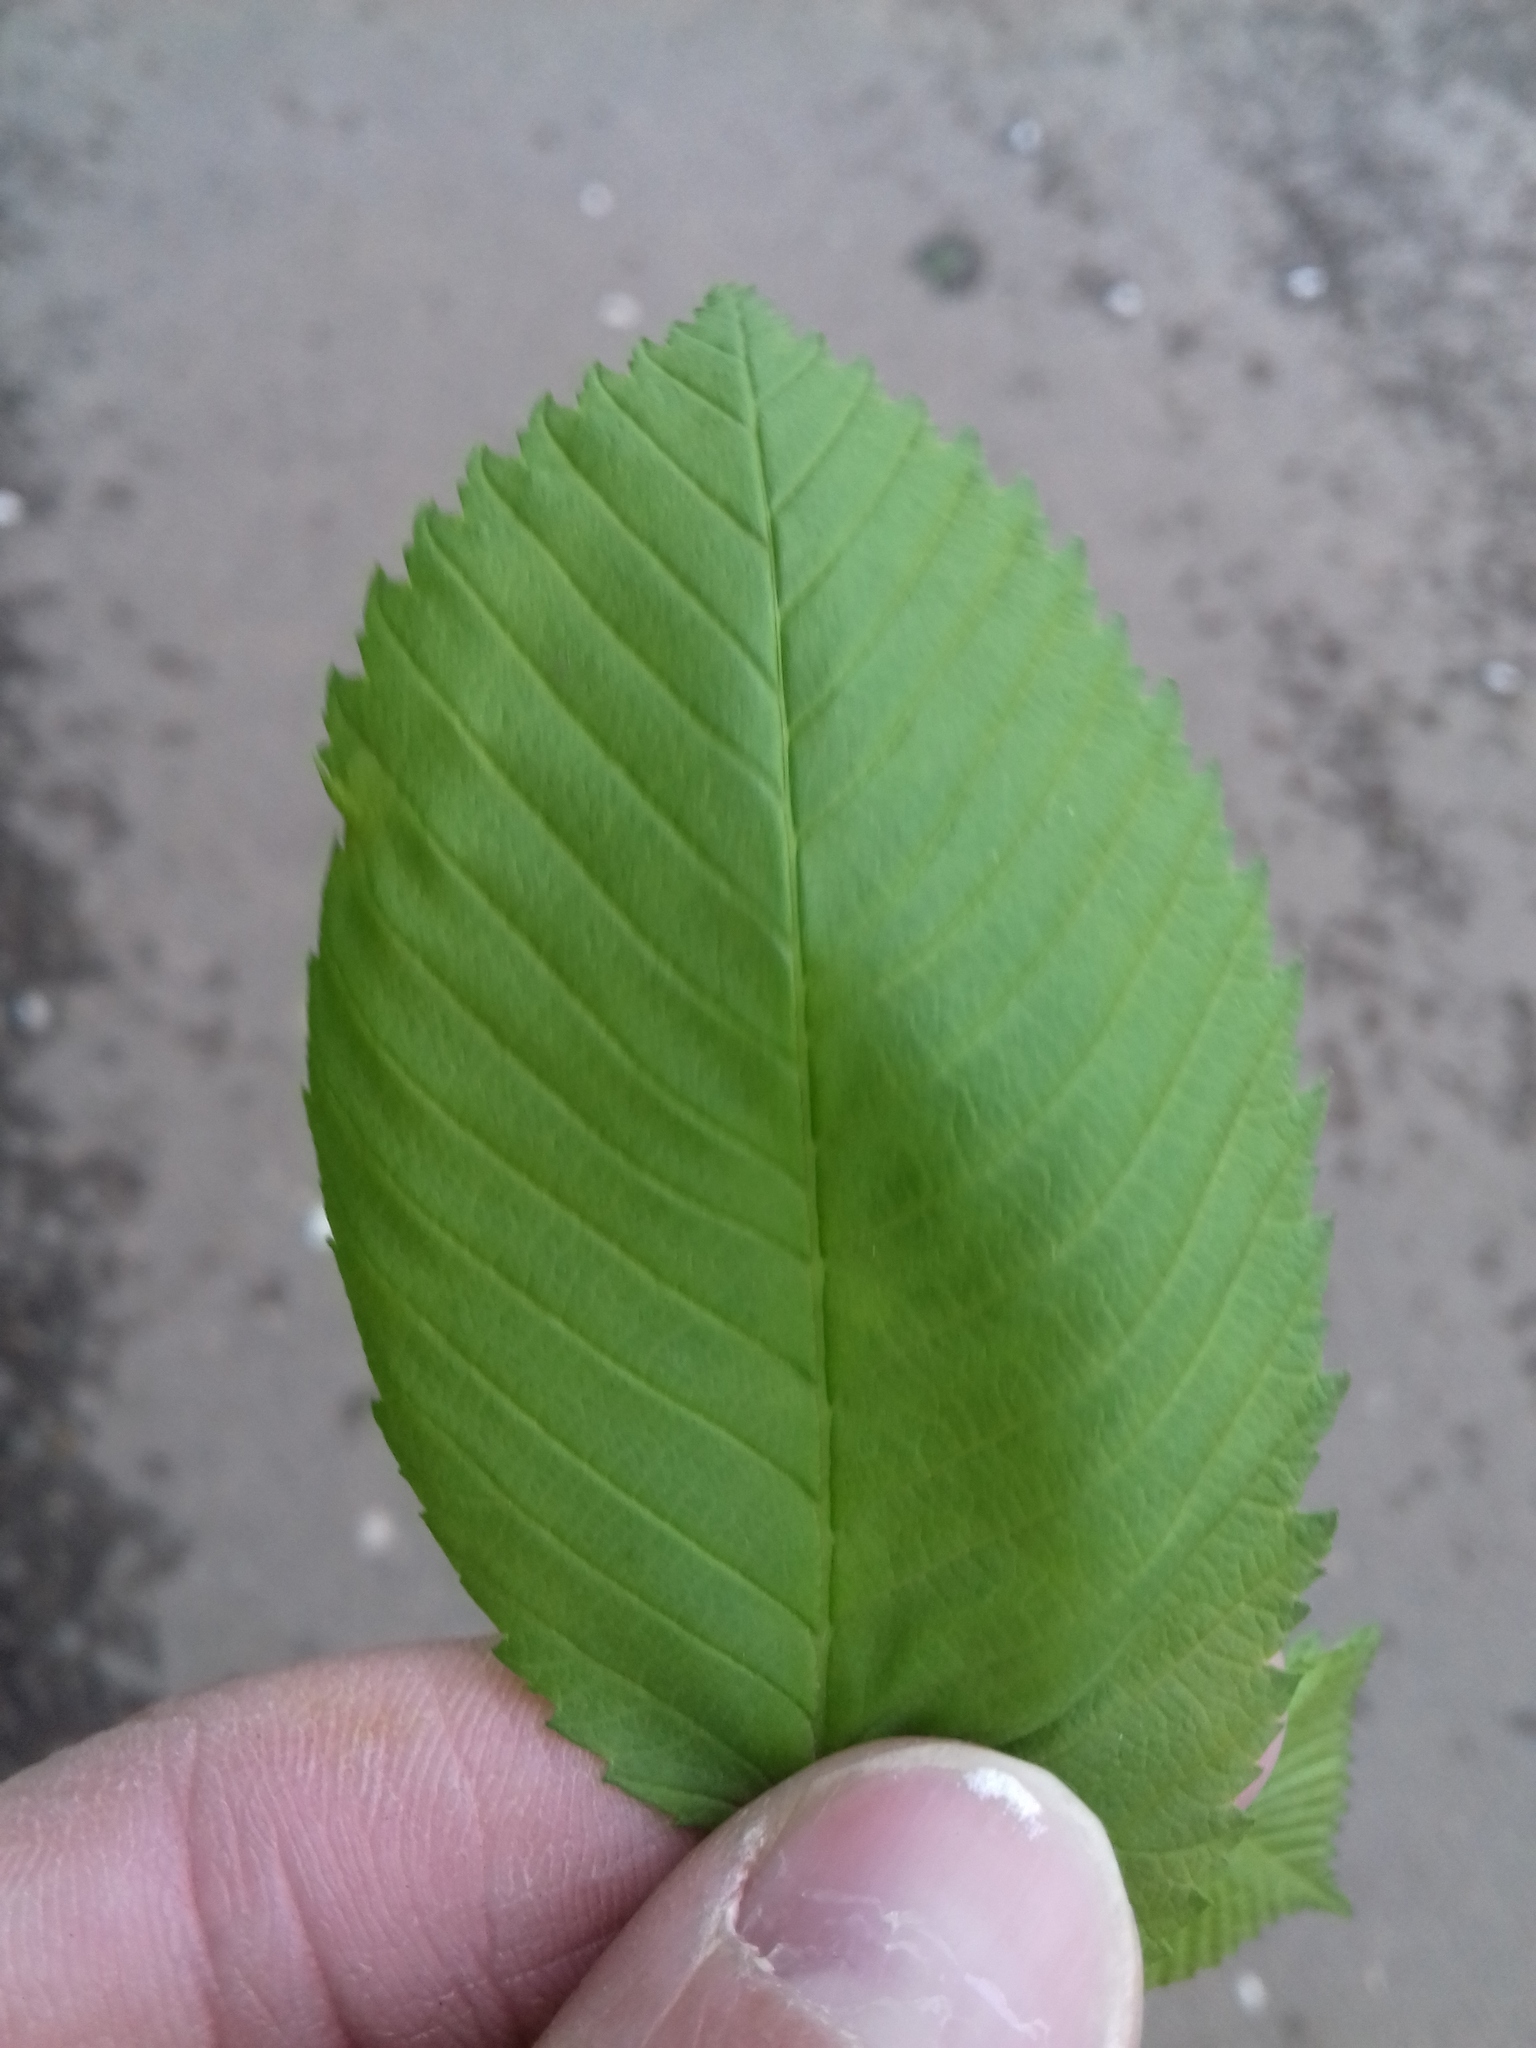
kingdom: Plantae
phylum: Tracheophyta
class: Magnoliopsida
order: Rosales
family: Ulmaceae
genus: Ulmus
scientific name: Ulmus laevis
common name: European white-elm
